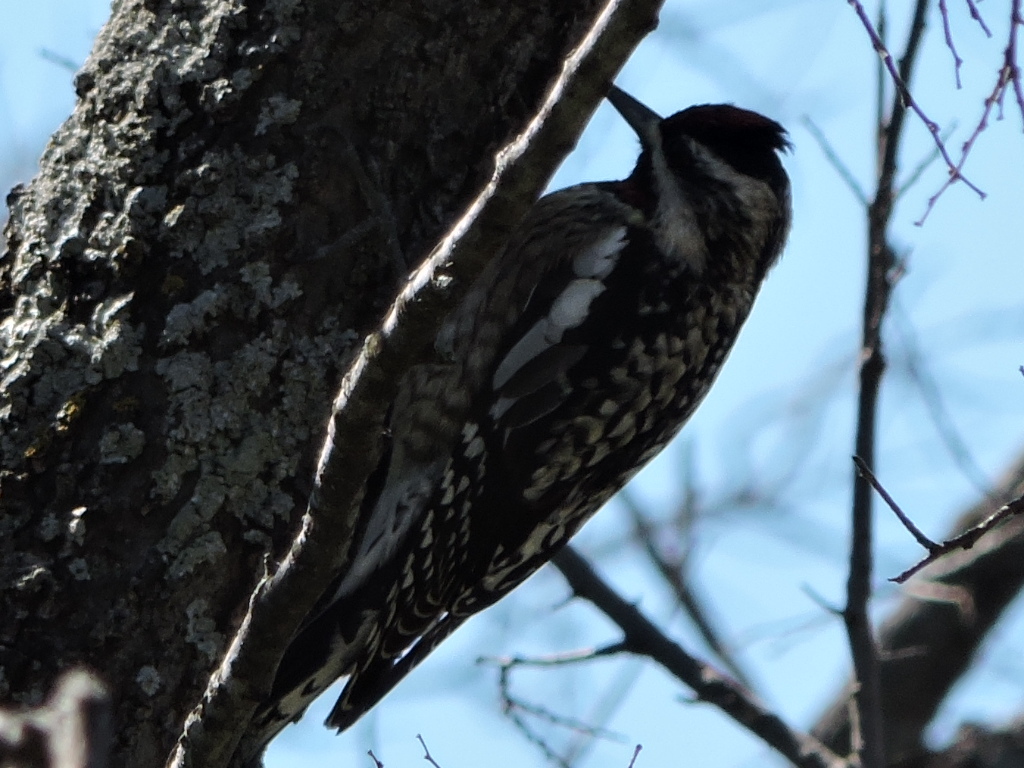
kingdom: Animalia
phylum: Chordata
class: Aves
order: Piciformes
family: Picidae
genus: Sphyrapicus
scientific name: Sphyrapicus varius
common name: Yellow-bellied sapsucker
